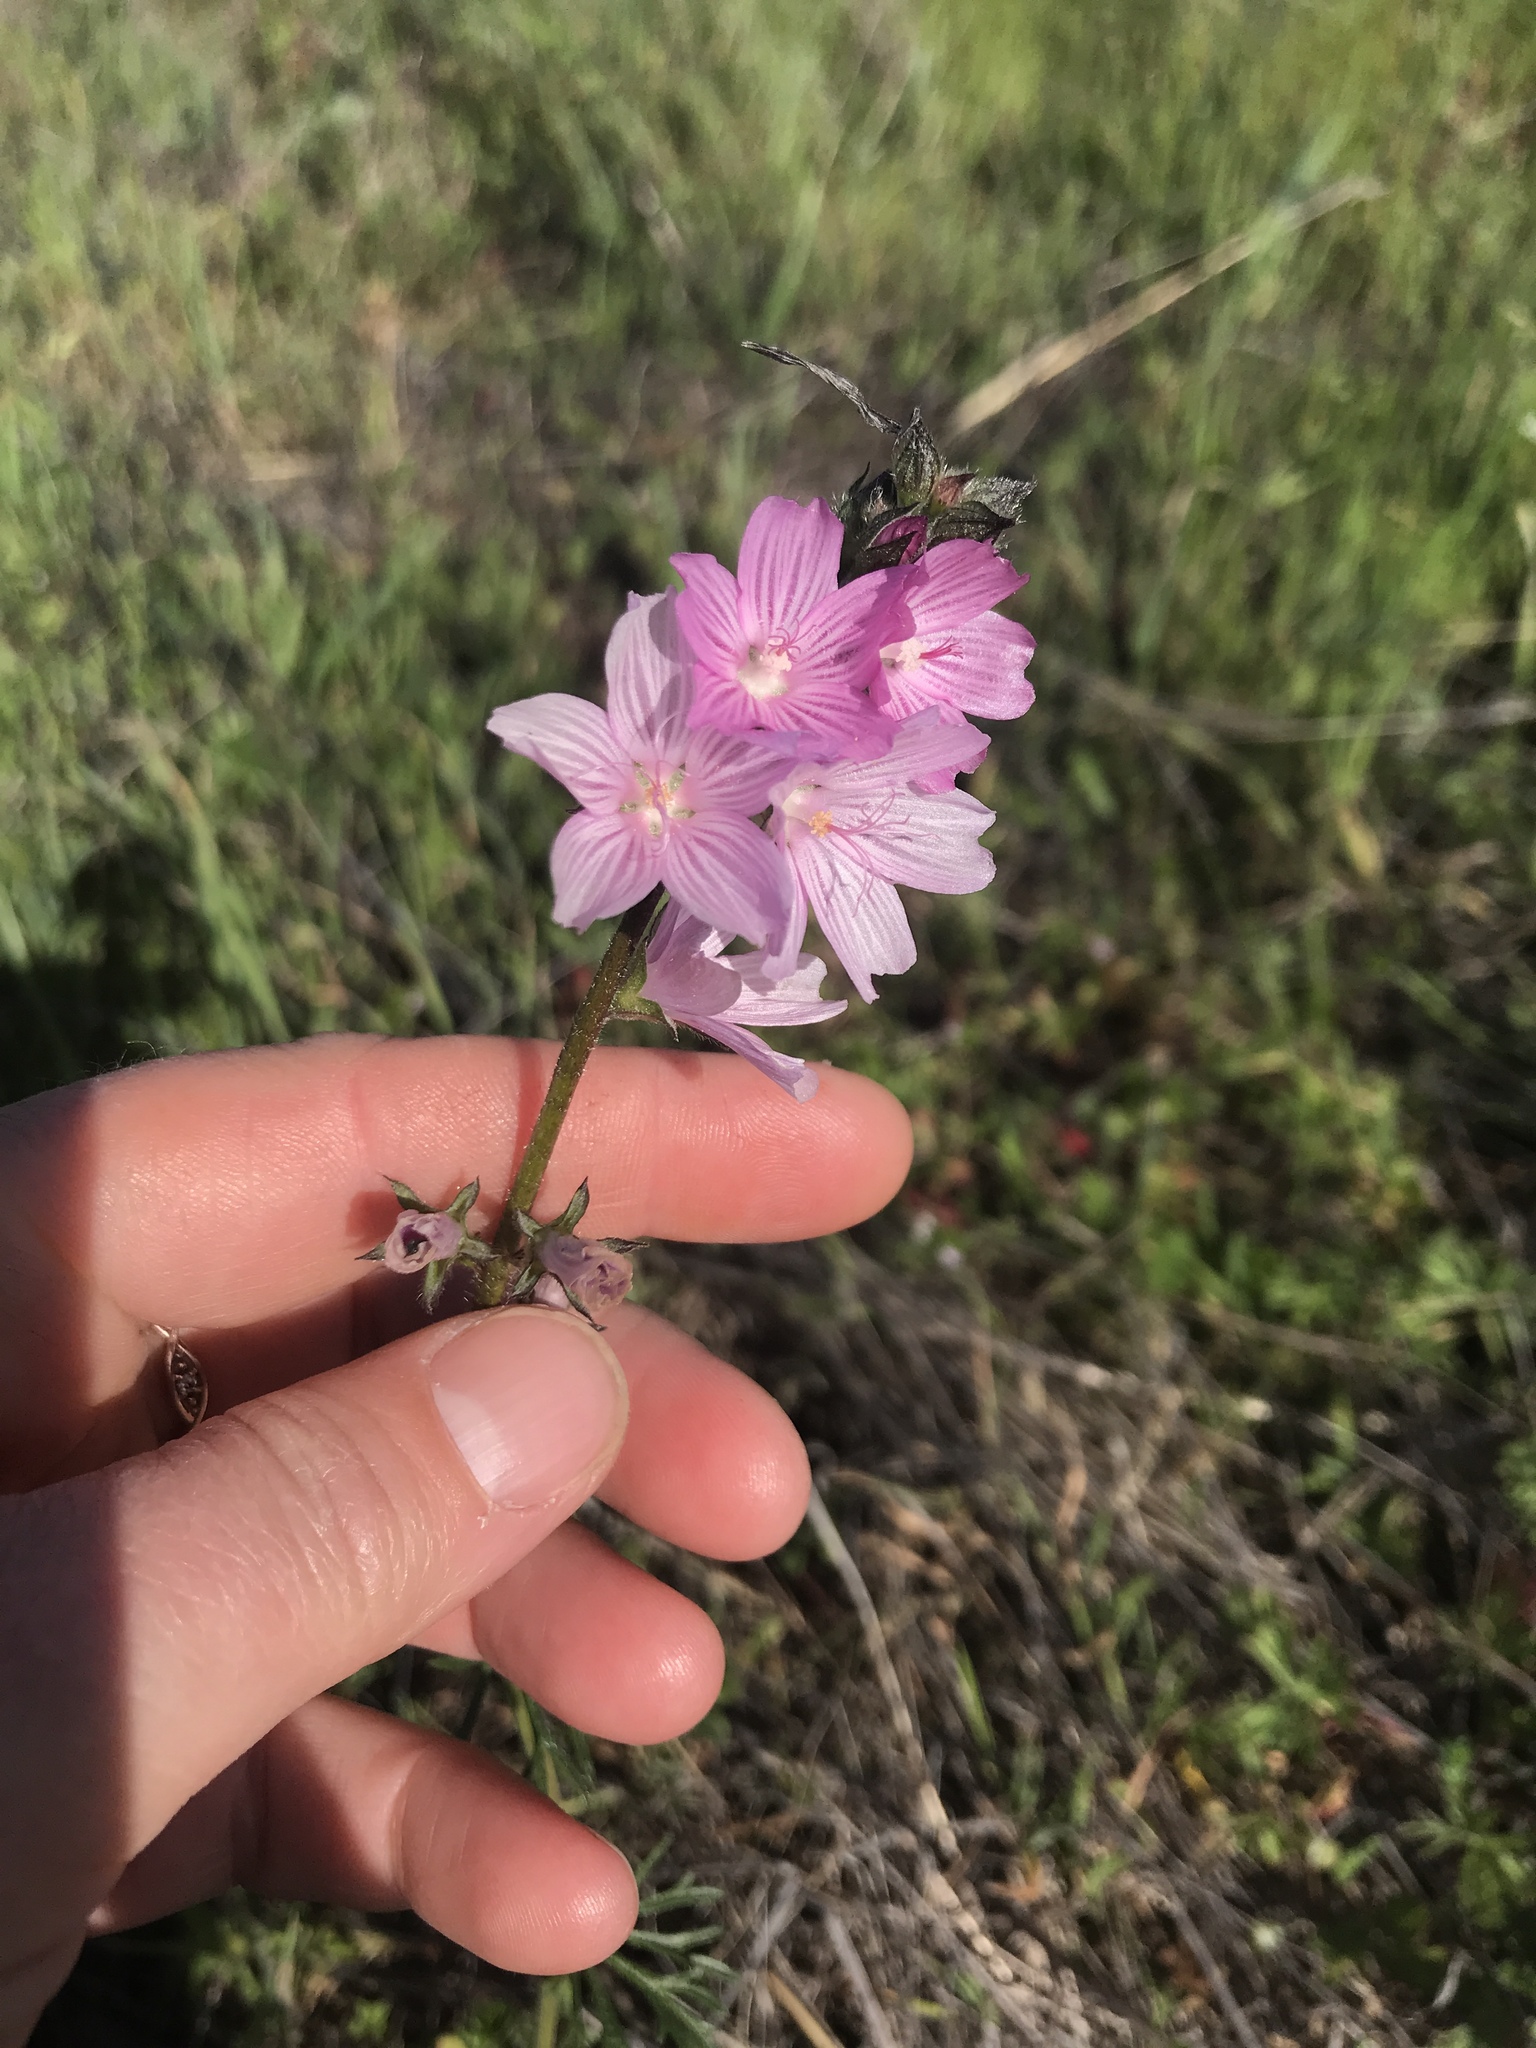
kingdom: Plantae
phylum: Tracheophyta
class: Magnoliopsida
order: Malvales
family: Malvaceae
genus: Sidalcea
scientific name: Sidalcea malviflora
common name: Greek mallow
